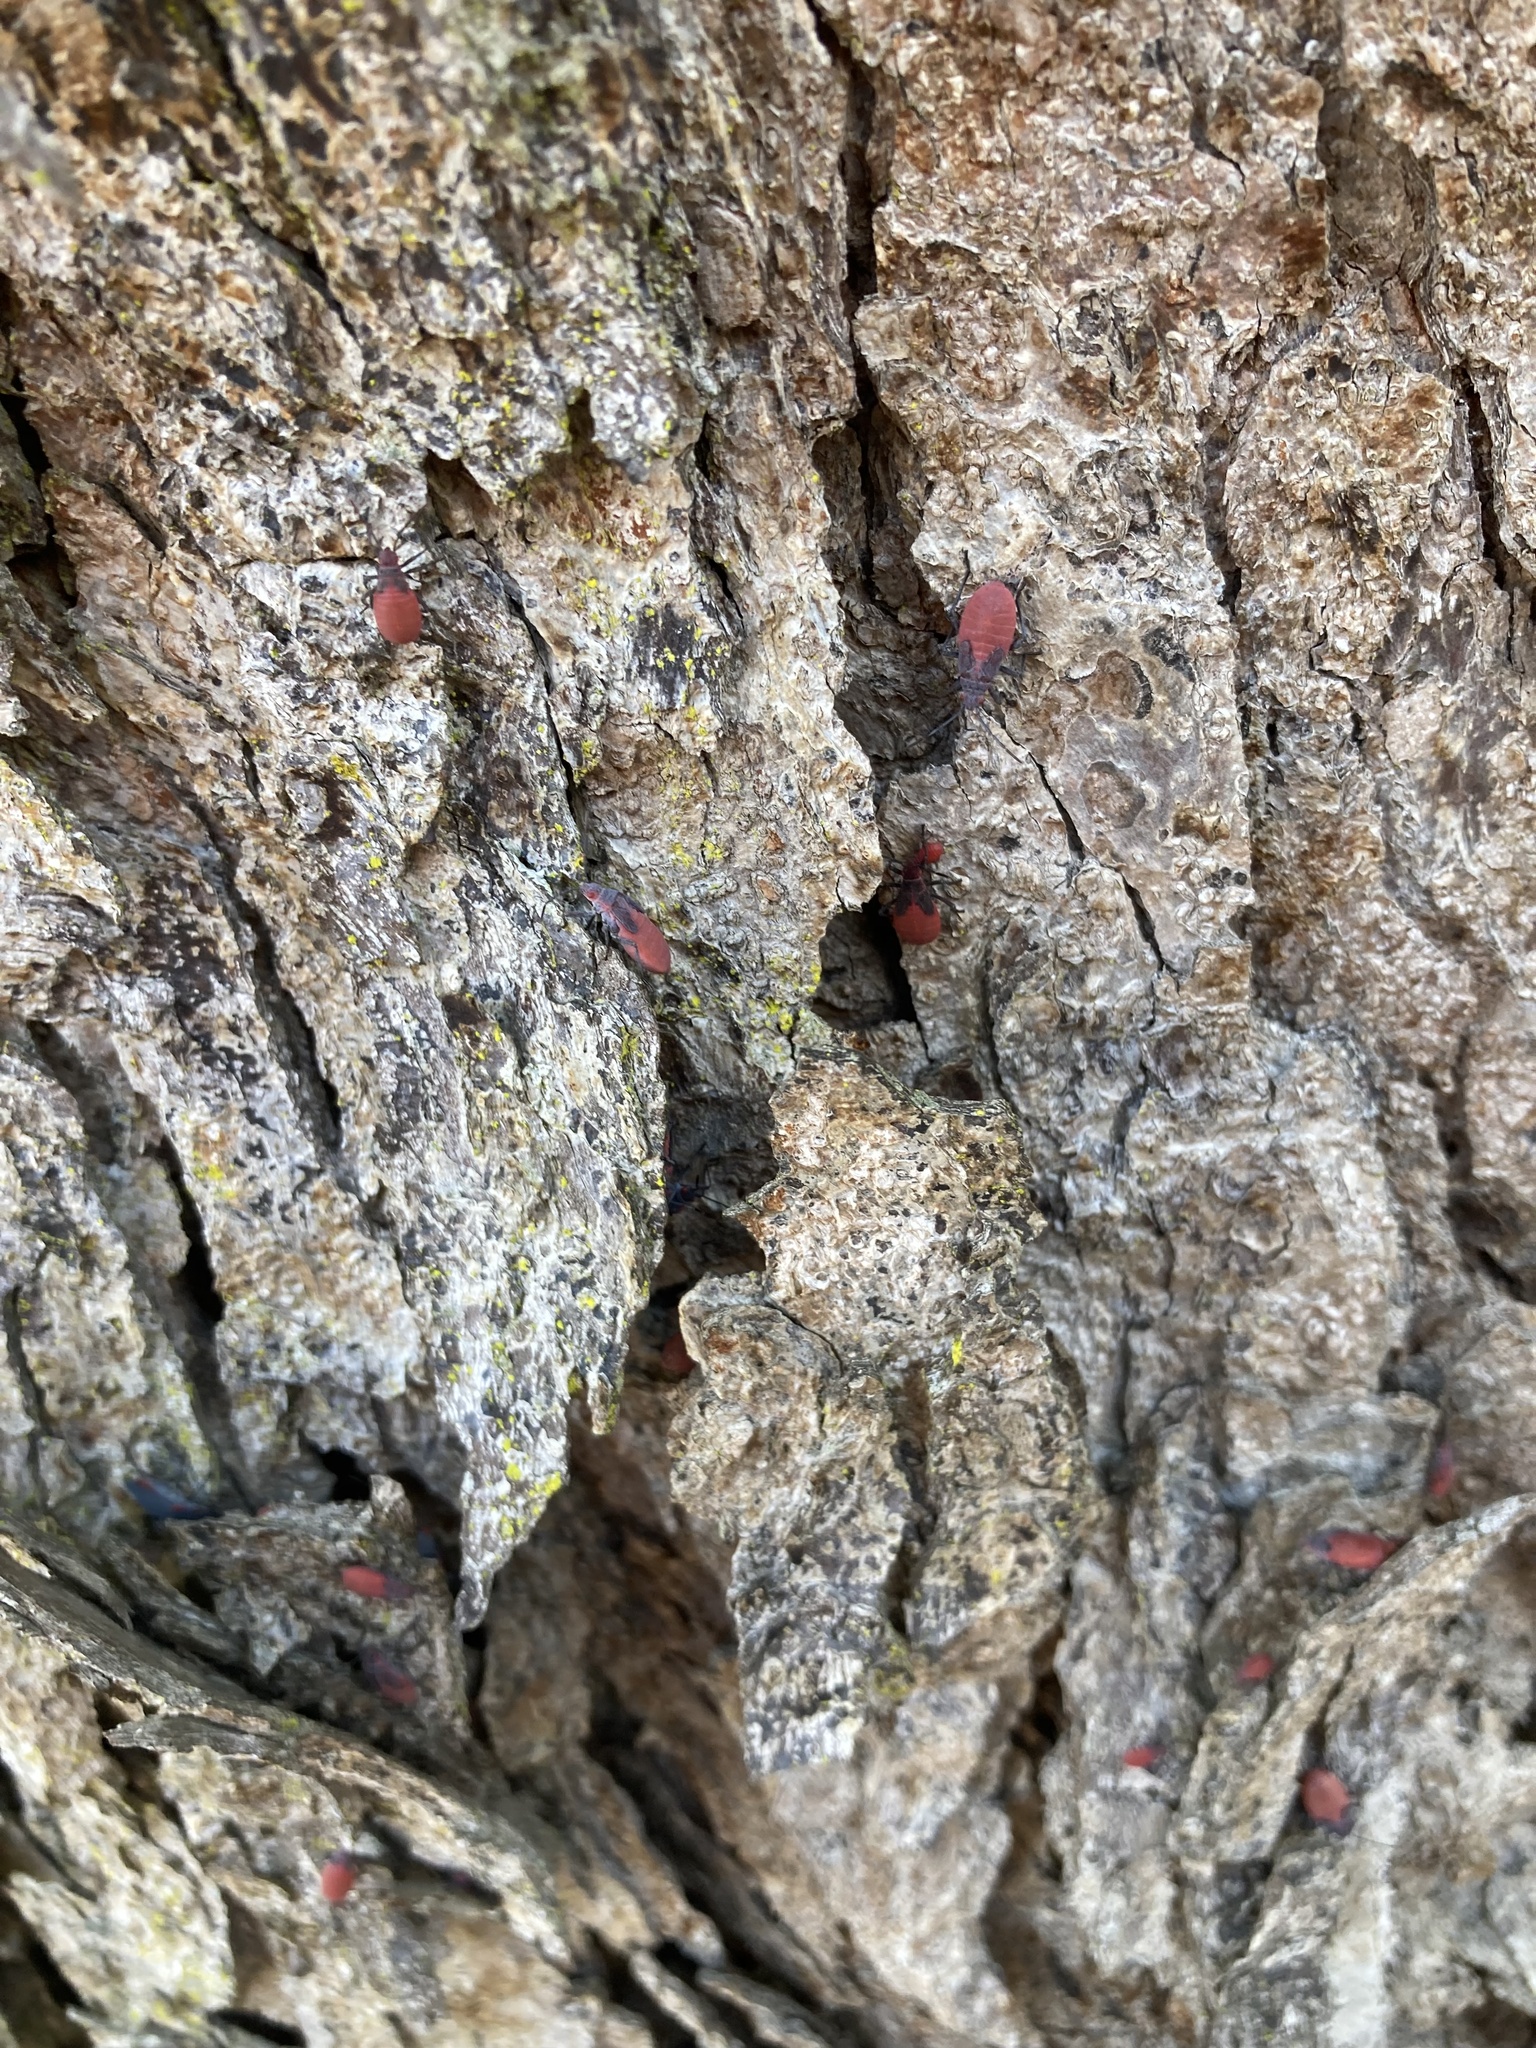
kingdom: Animalia
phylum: Arthropoda
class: Insecta
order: Hemiptera
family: Rhopalidae
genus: Jadera
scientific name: Jadera haematoloma
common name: Red-shouldered bug
